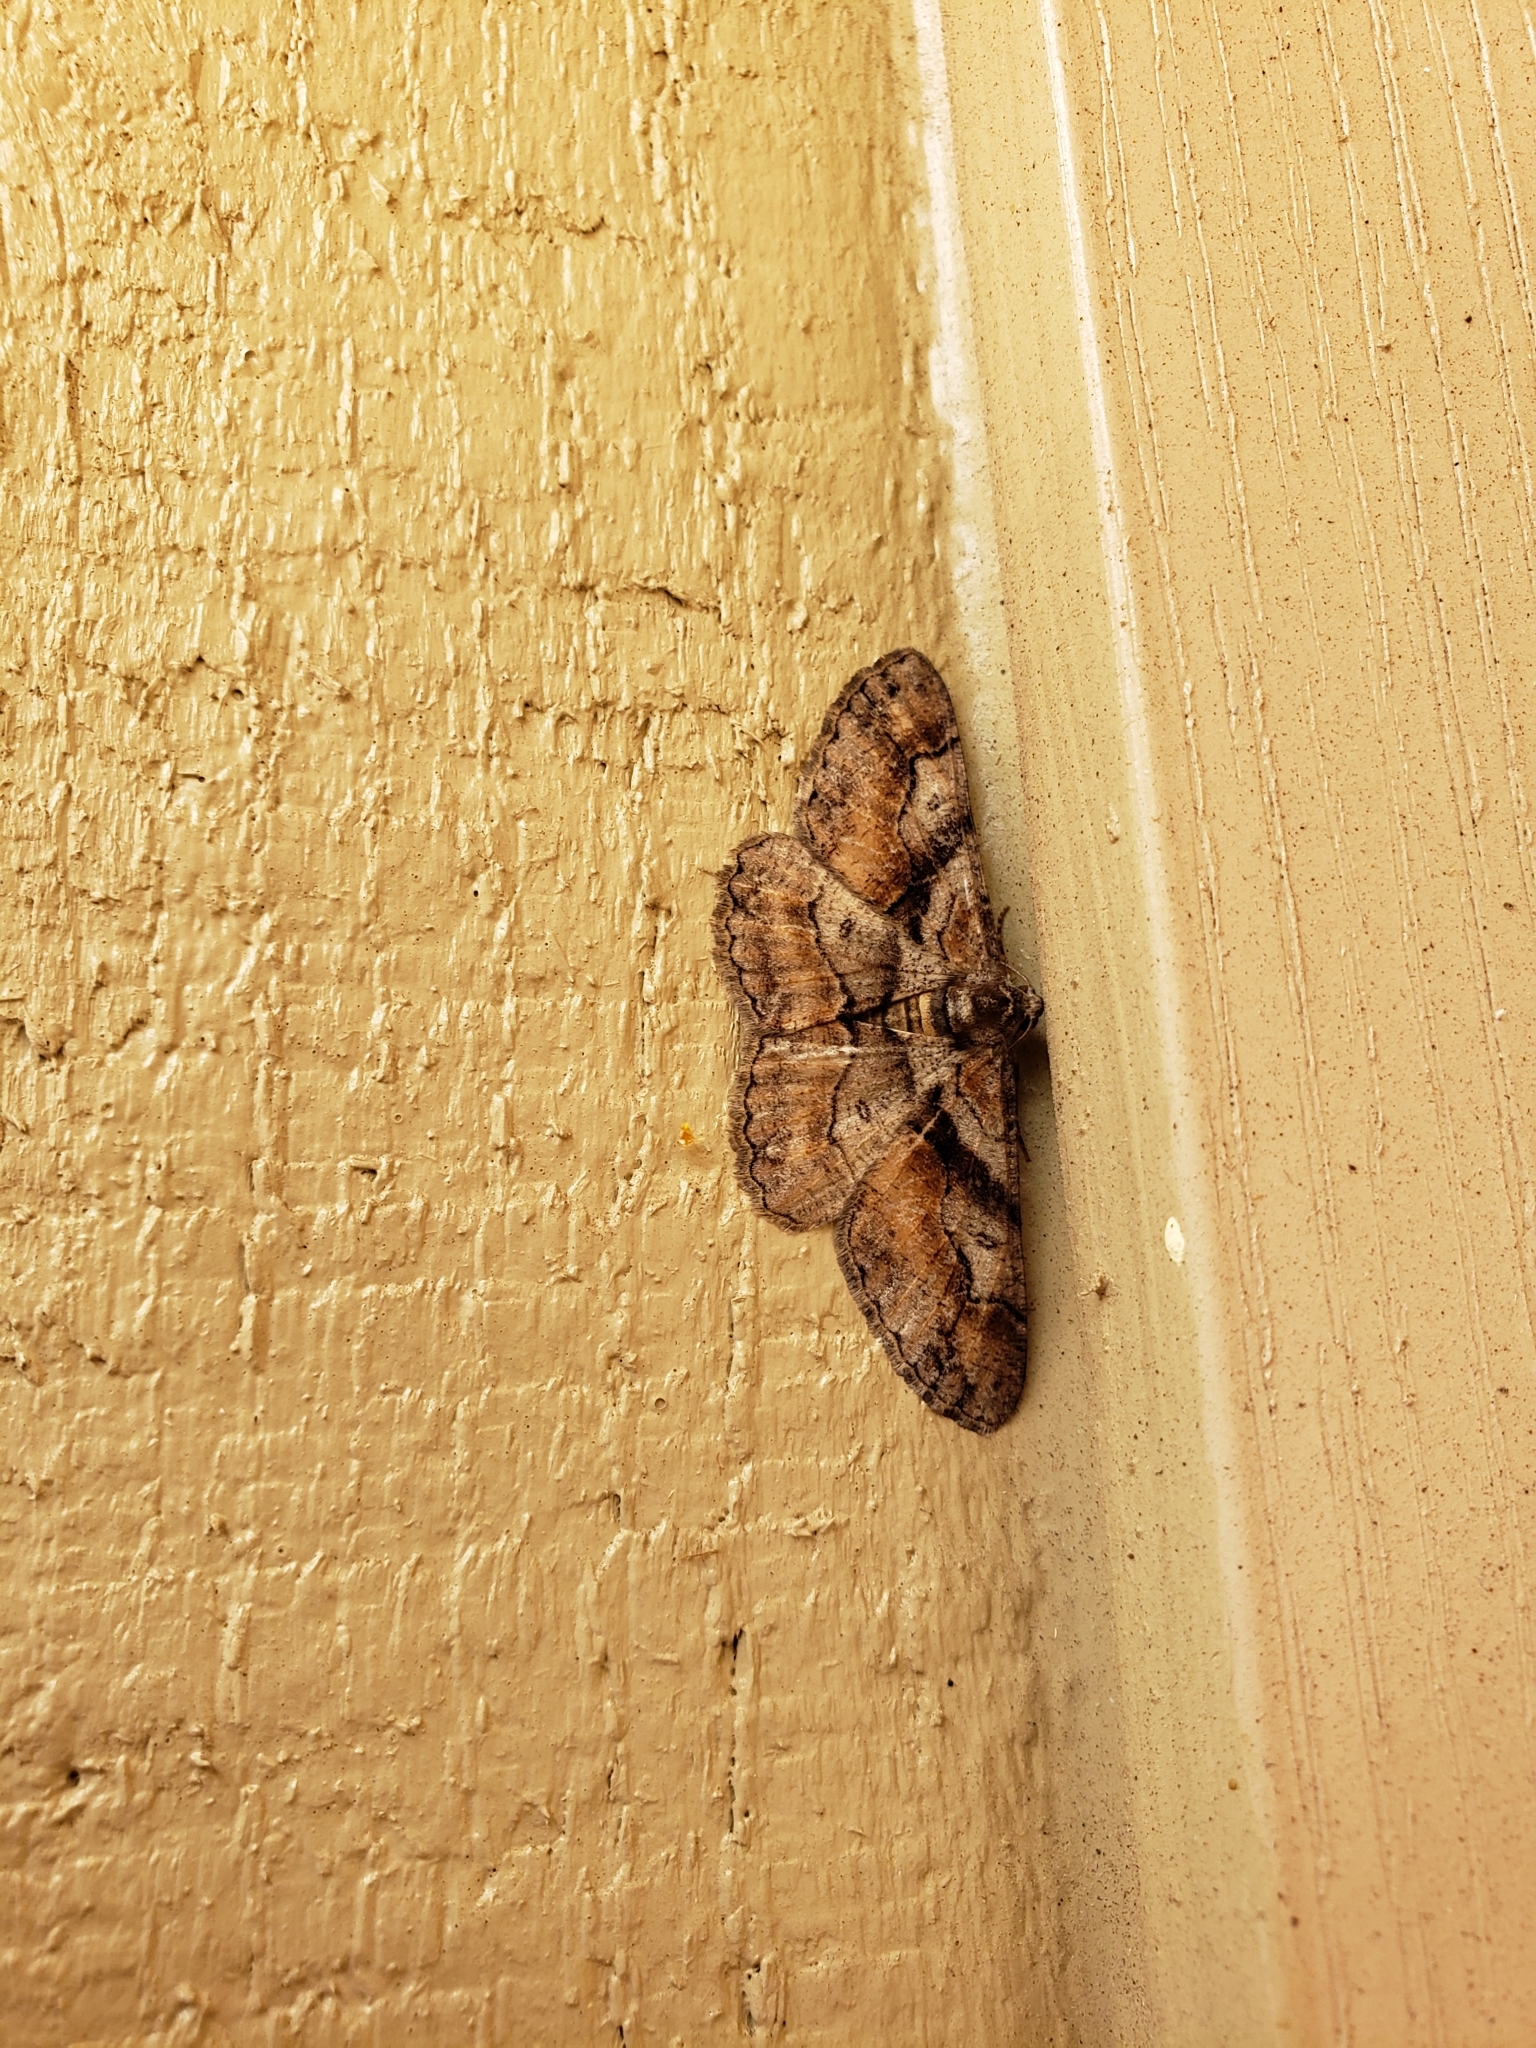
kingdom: Animalia
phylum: Arthropoda
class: Insecta
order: Lepidoptera
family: Geometridae
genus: Mericisca
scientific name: Mericisca gracea
